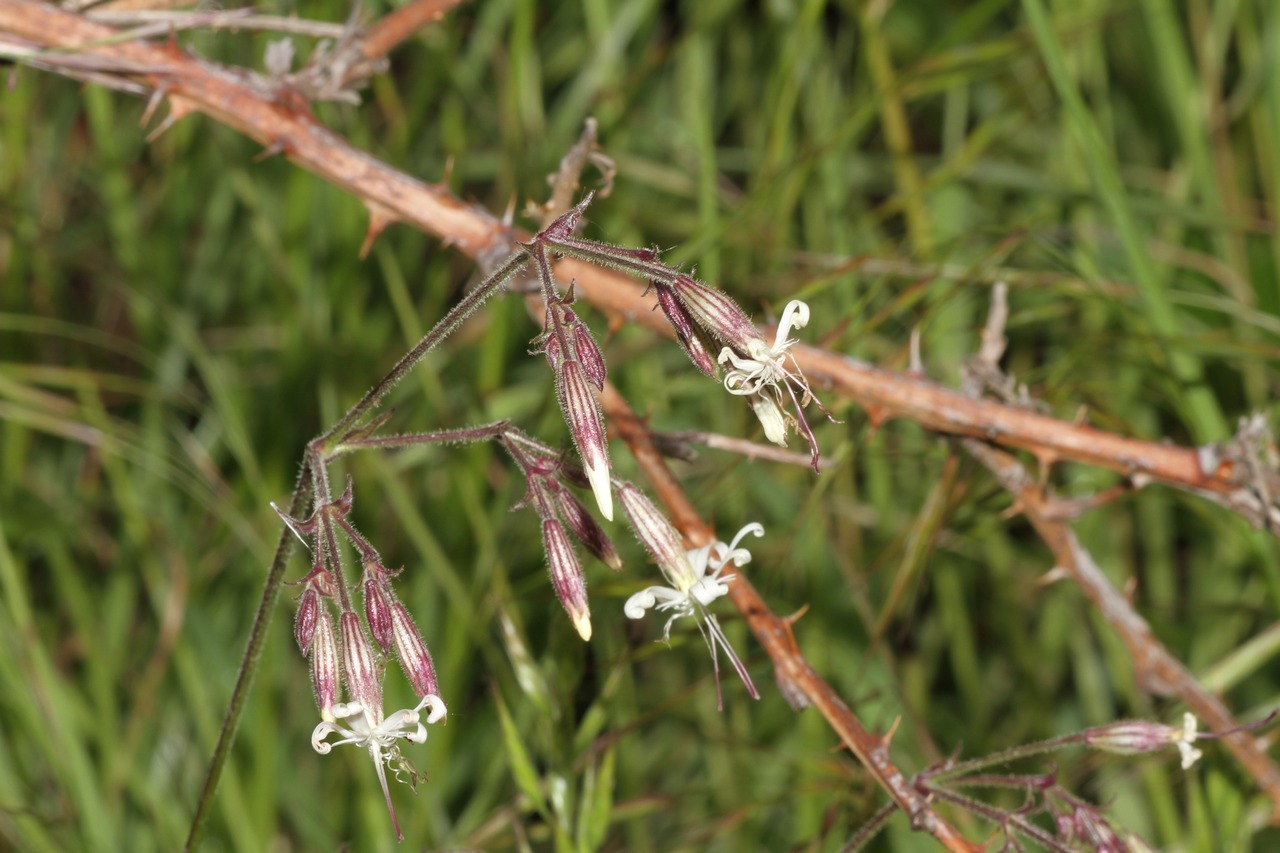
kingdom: Plantae
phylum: Tracheophyta
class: Magnoliopsida
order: Caryophyllales
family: Caryophyllaceae
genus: Silene
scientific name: Silene nutans
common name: Nottingham catchfly
